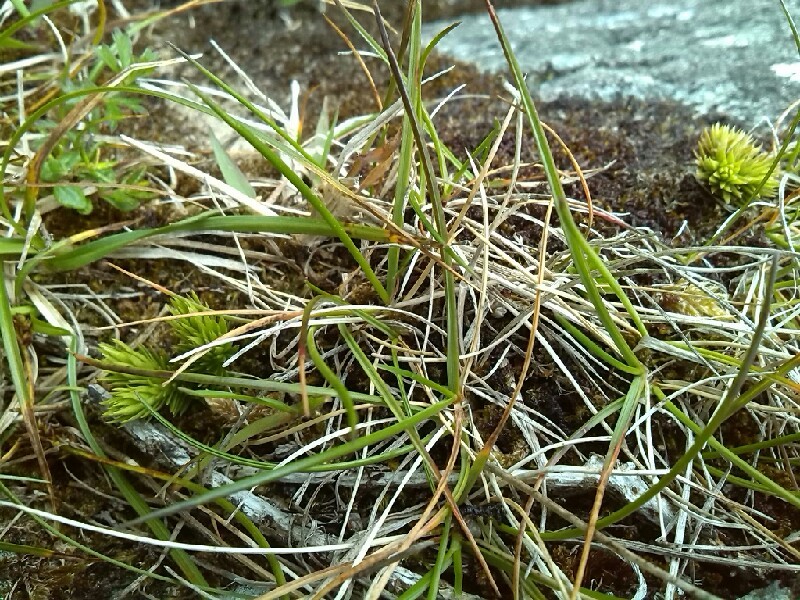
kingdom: Plantae
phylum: Tracheophyta
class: Lycopodiopsida
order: Lycopodiales
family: Lycopodiaceae
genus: Huperzia
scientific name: Huperzia selago
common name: Northern firmoss
